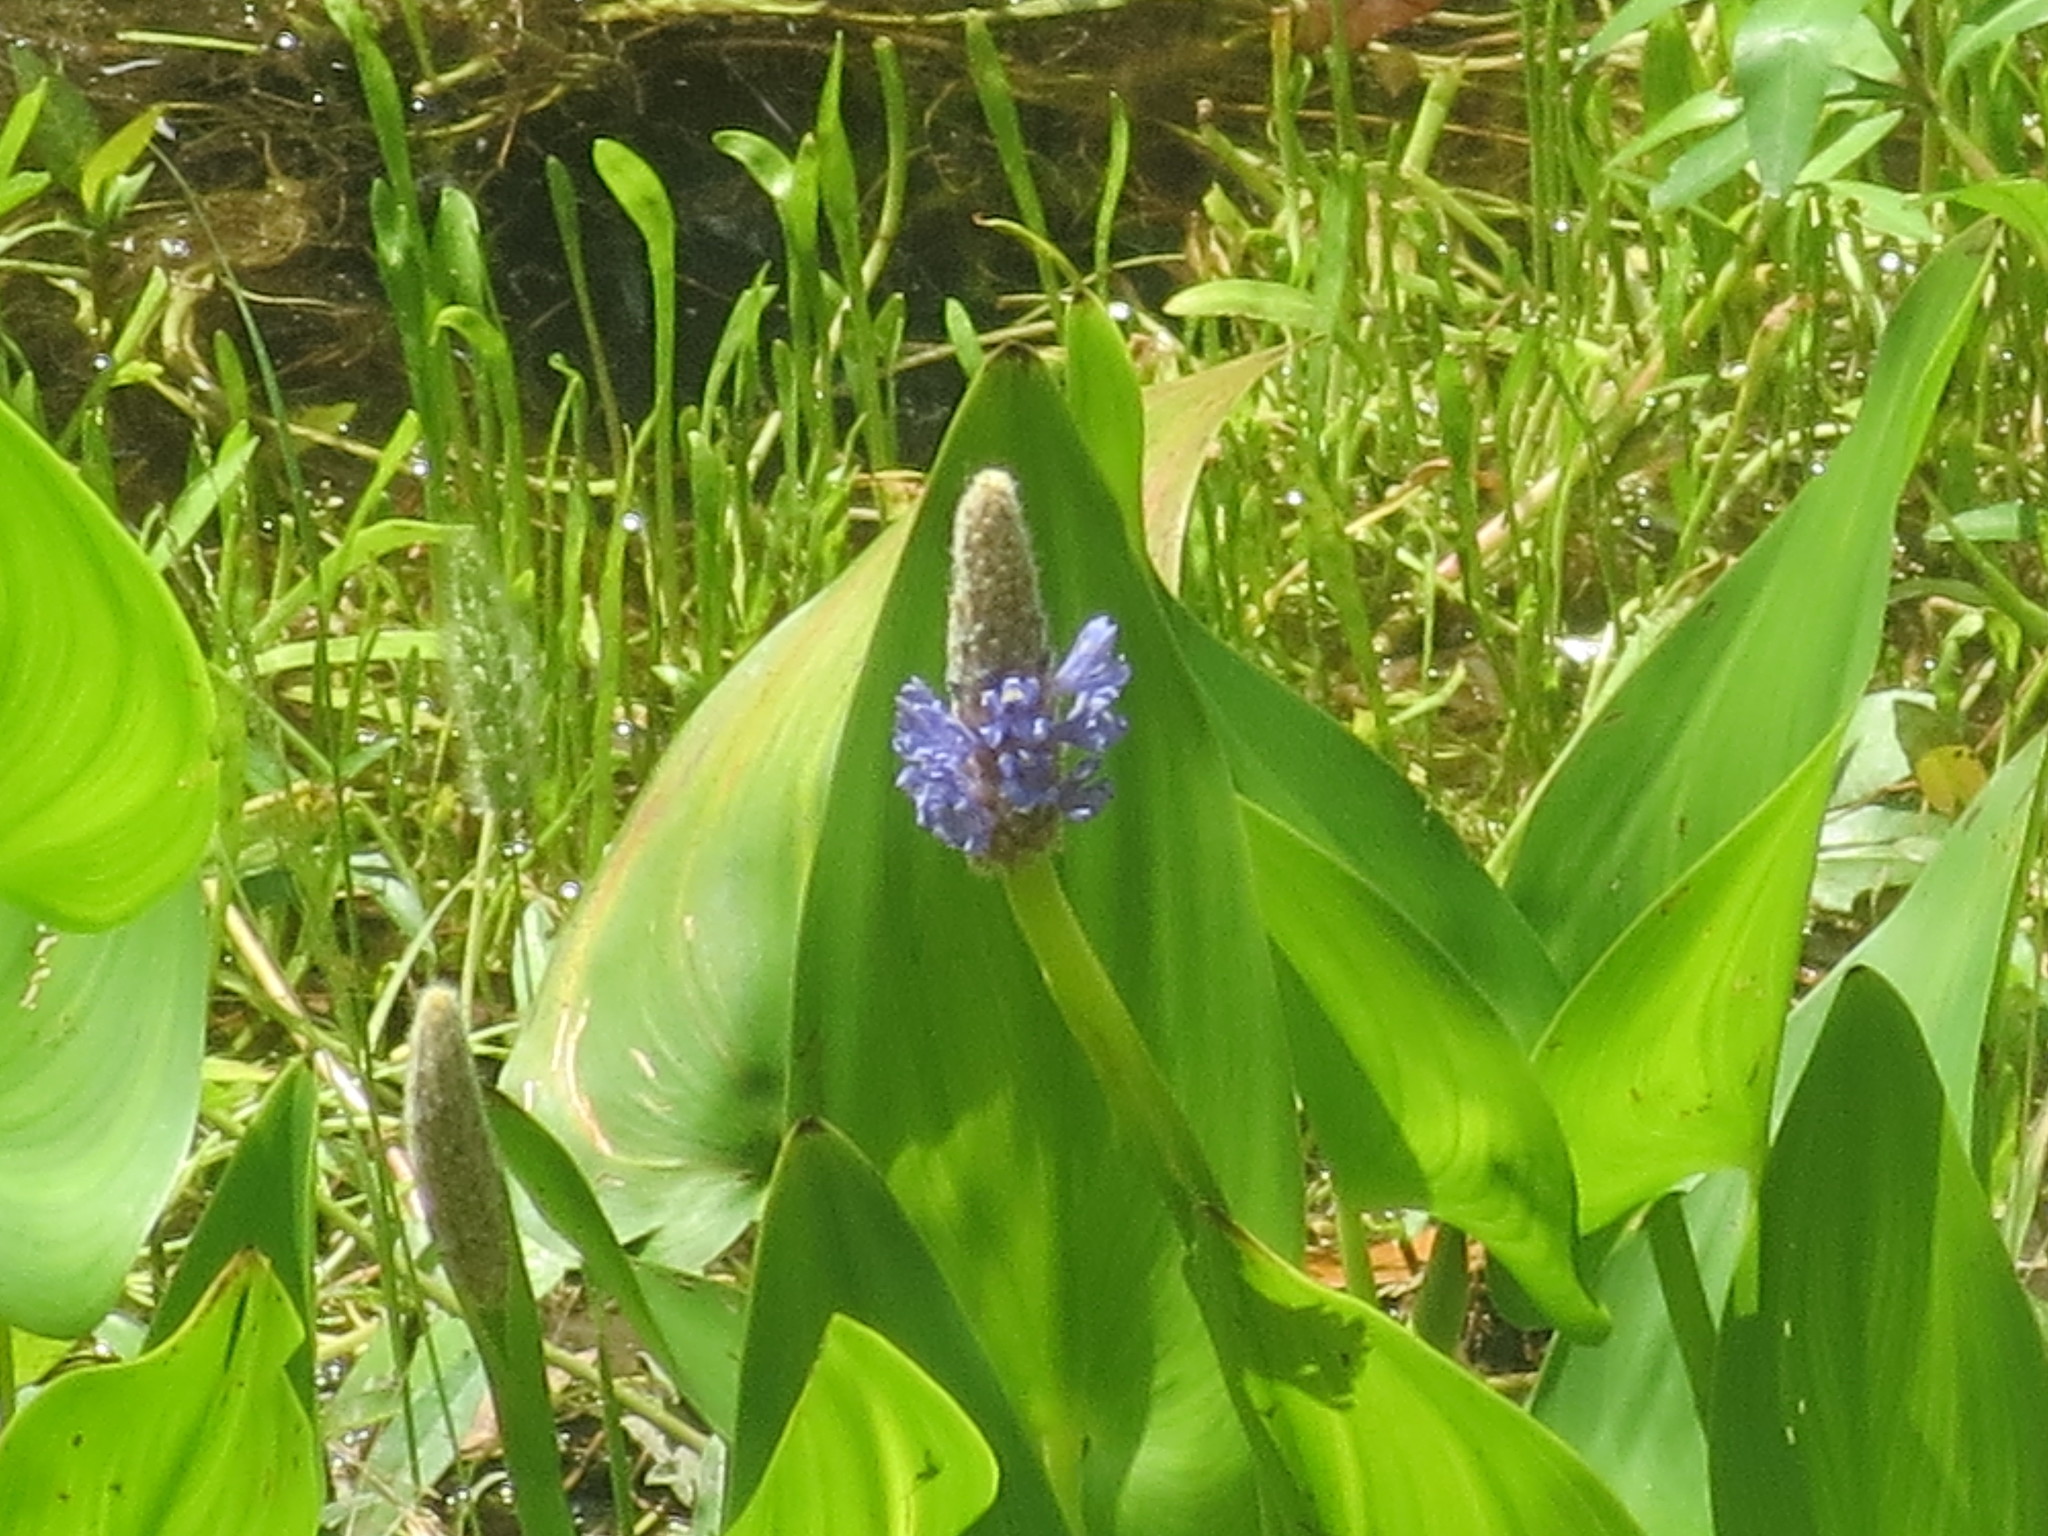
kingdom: Plantae
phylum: Tracheophyta
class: Liliopsida
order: Commelinales
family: Pontederiaceae
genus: Pontederia
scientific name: Pontederia cordata
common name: Pickerelweed
